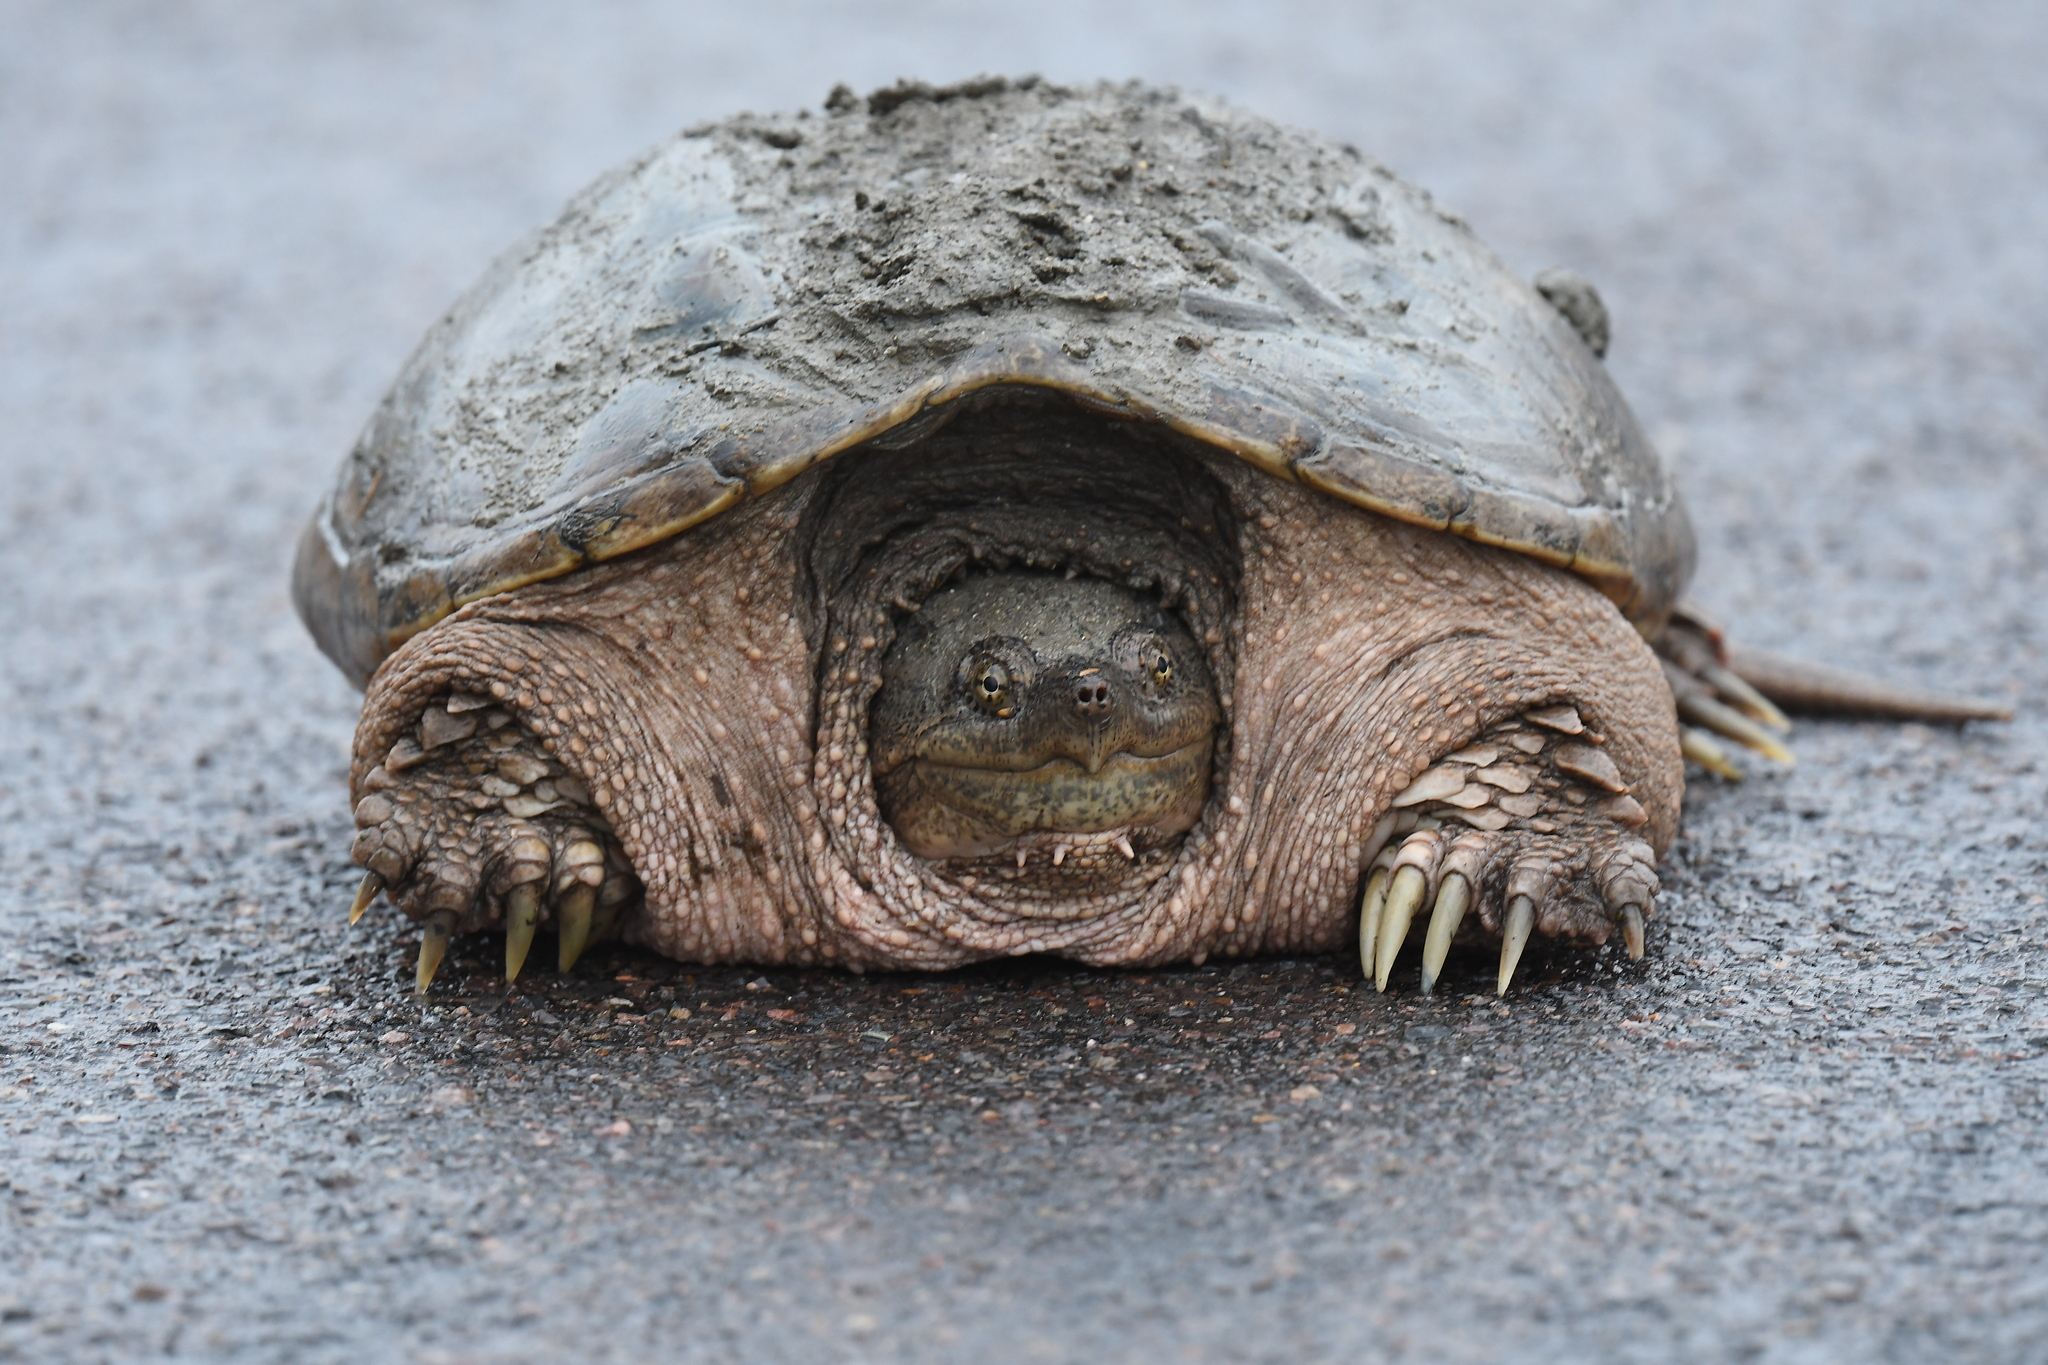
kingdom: Animalia
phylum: Chordata
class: Testudines
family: Chelydridae
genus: Chelydra
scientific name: Chelydra serpentina
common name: Common snapping turtle
